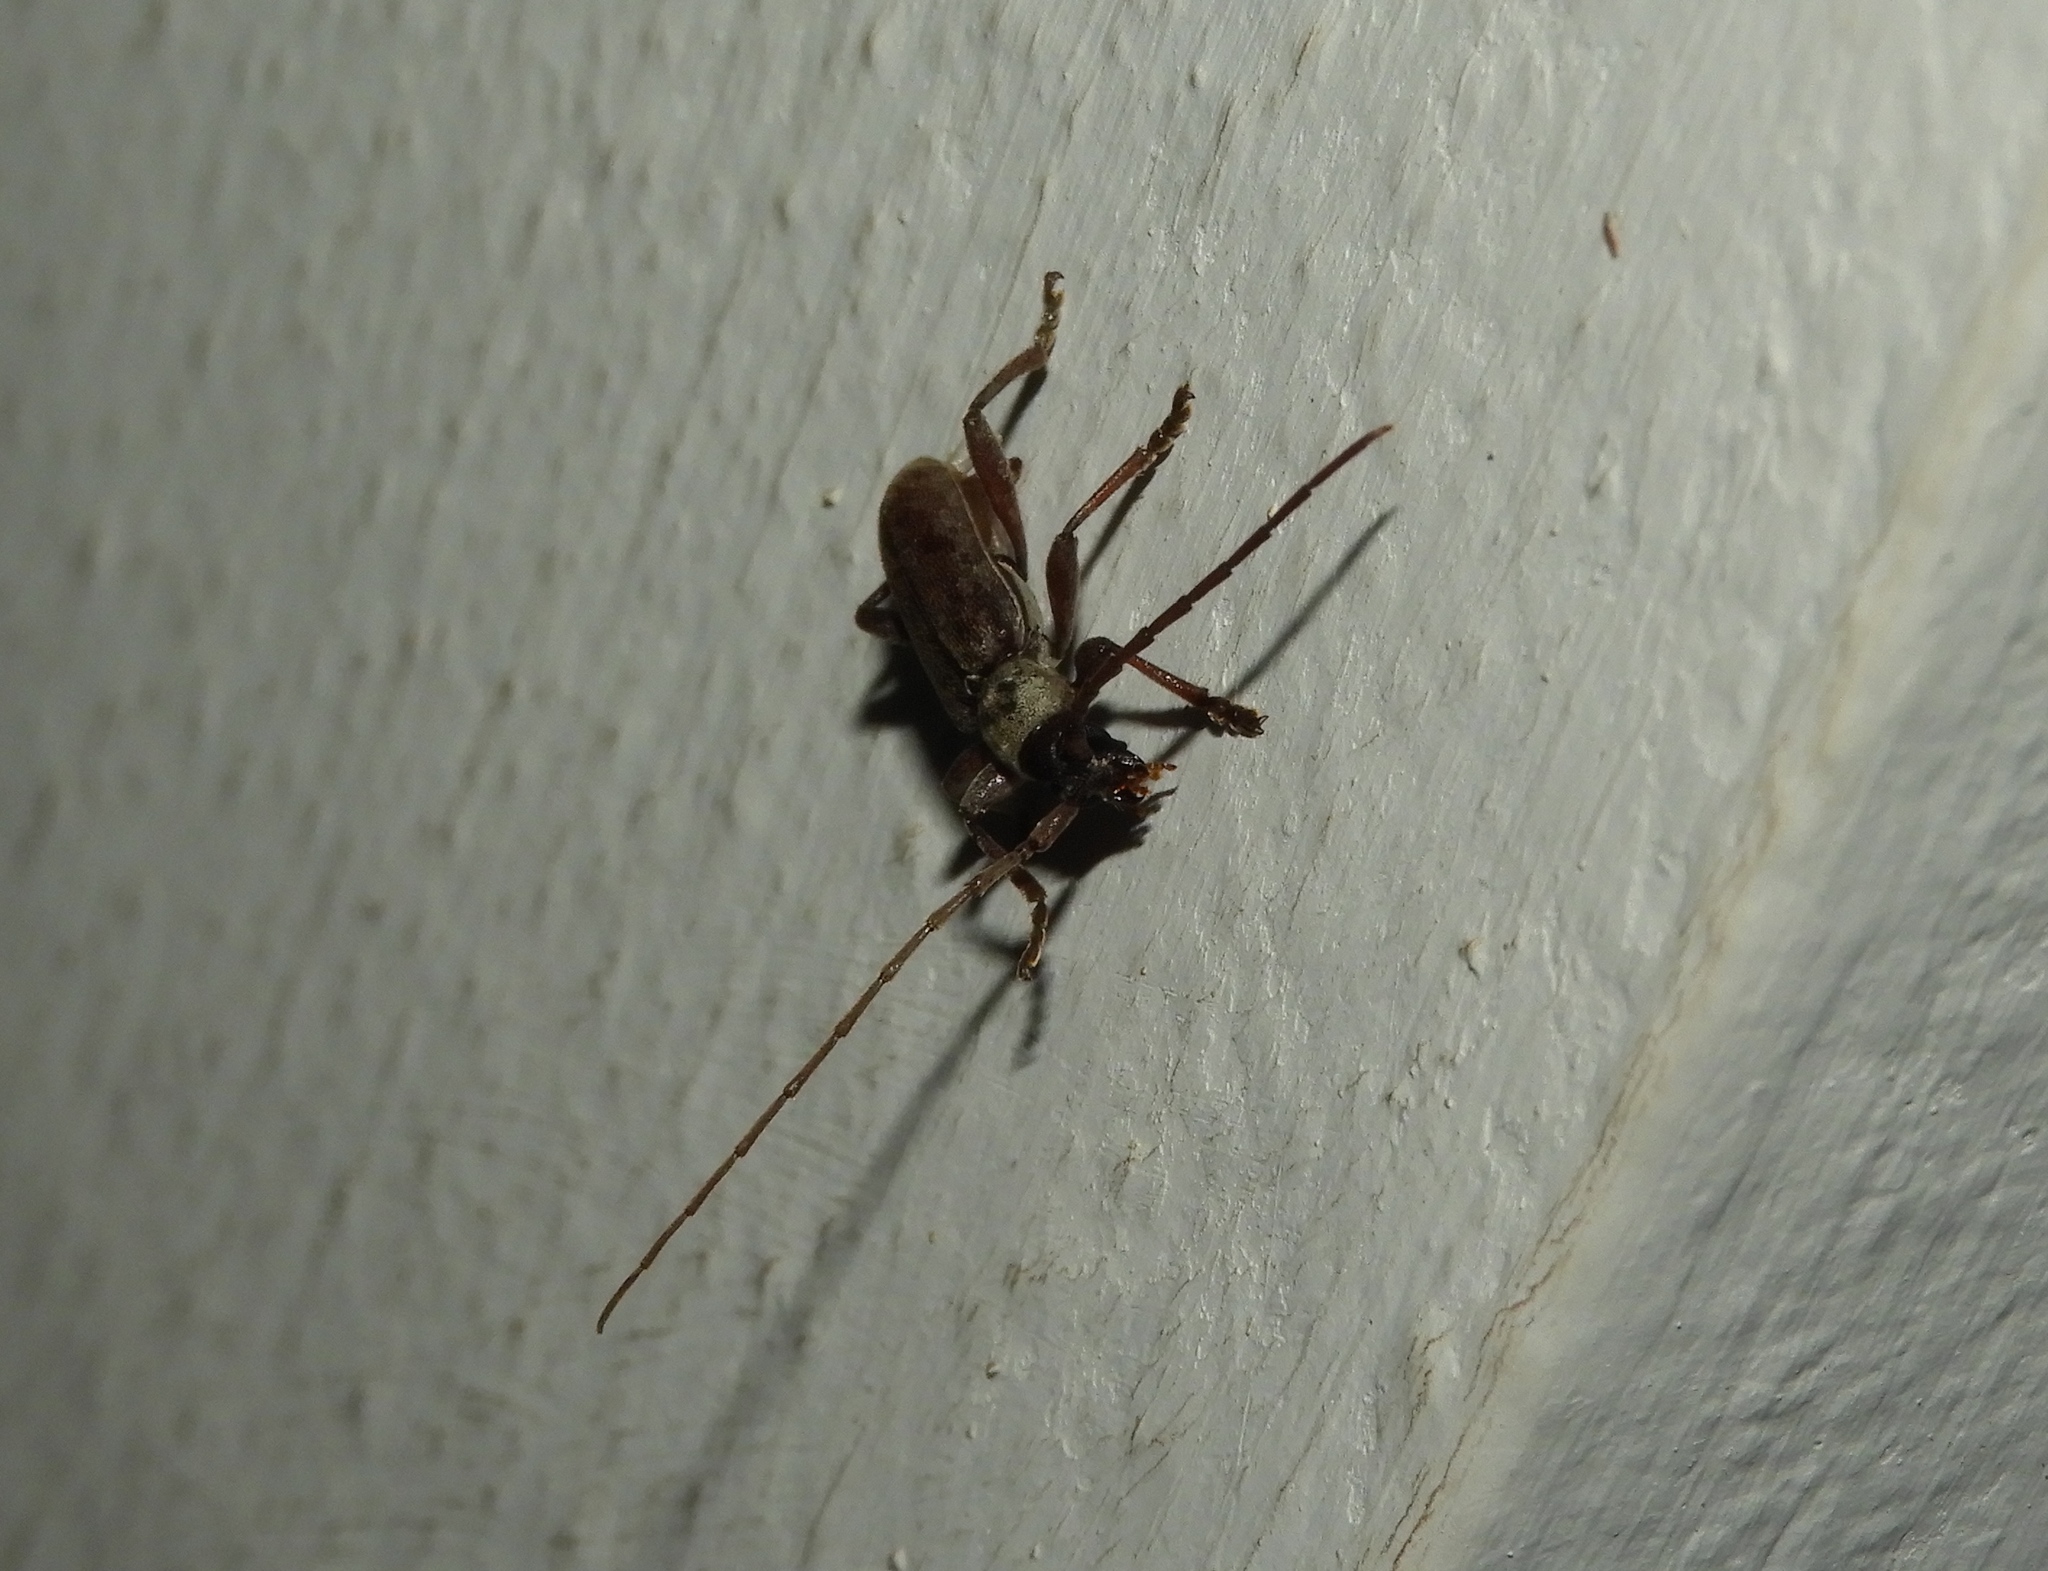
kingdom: Animalia
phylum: Arthropoda
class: Insecta
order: Coleoptera
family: Cerambycidae
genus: Anelaphus
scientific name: Anelaphus badius
